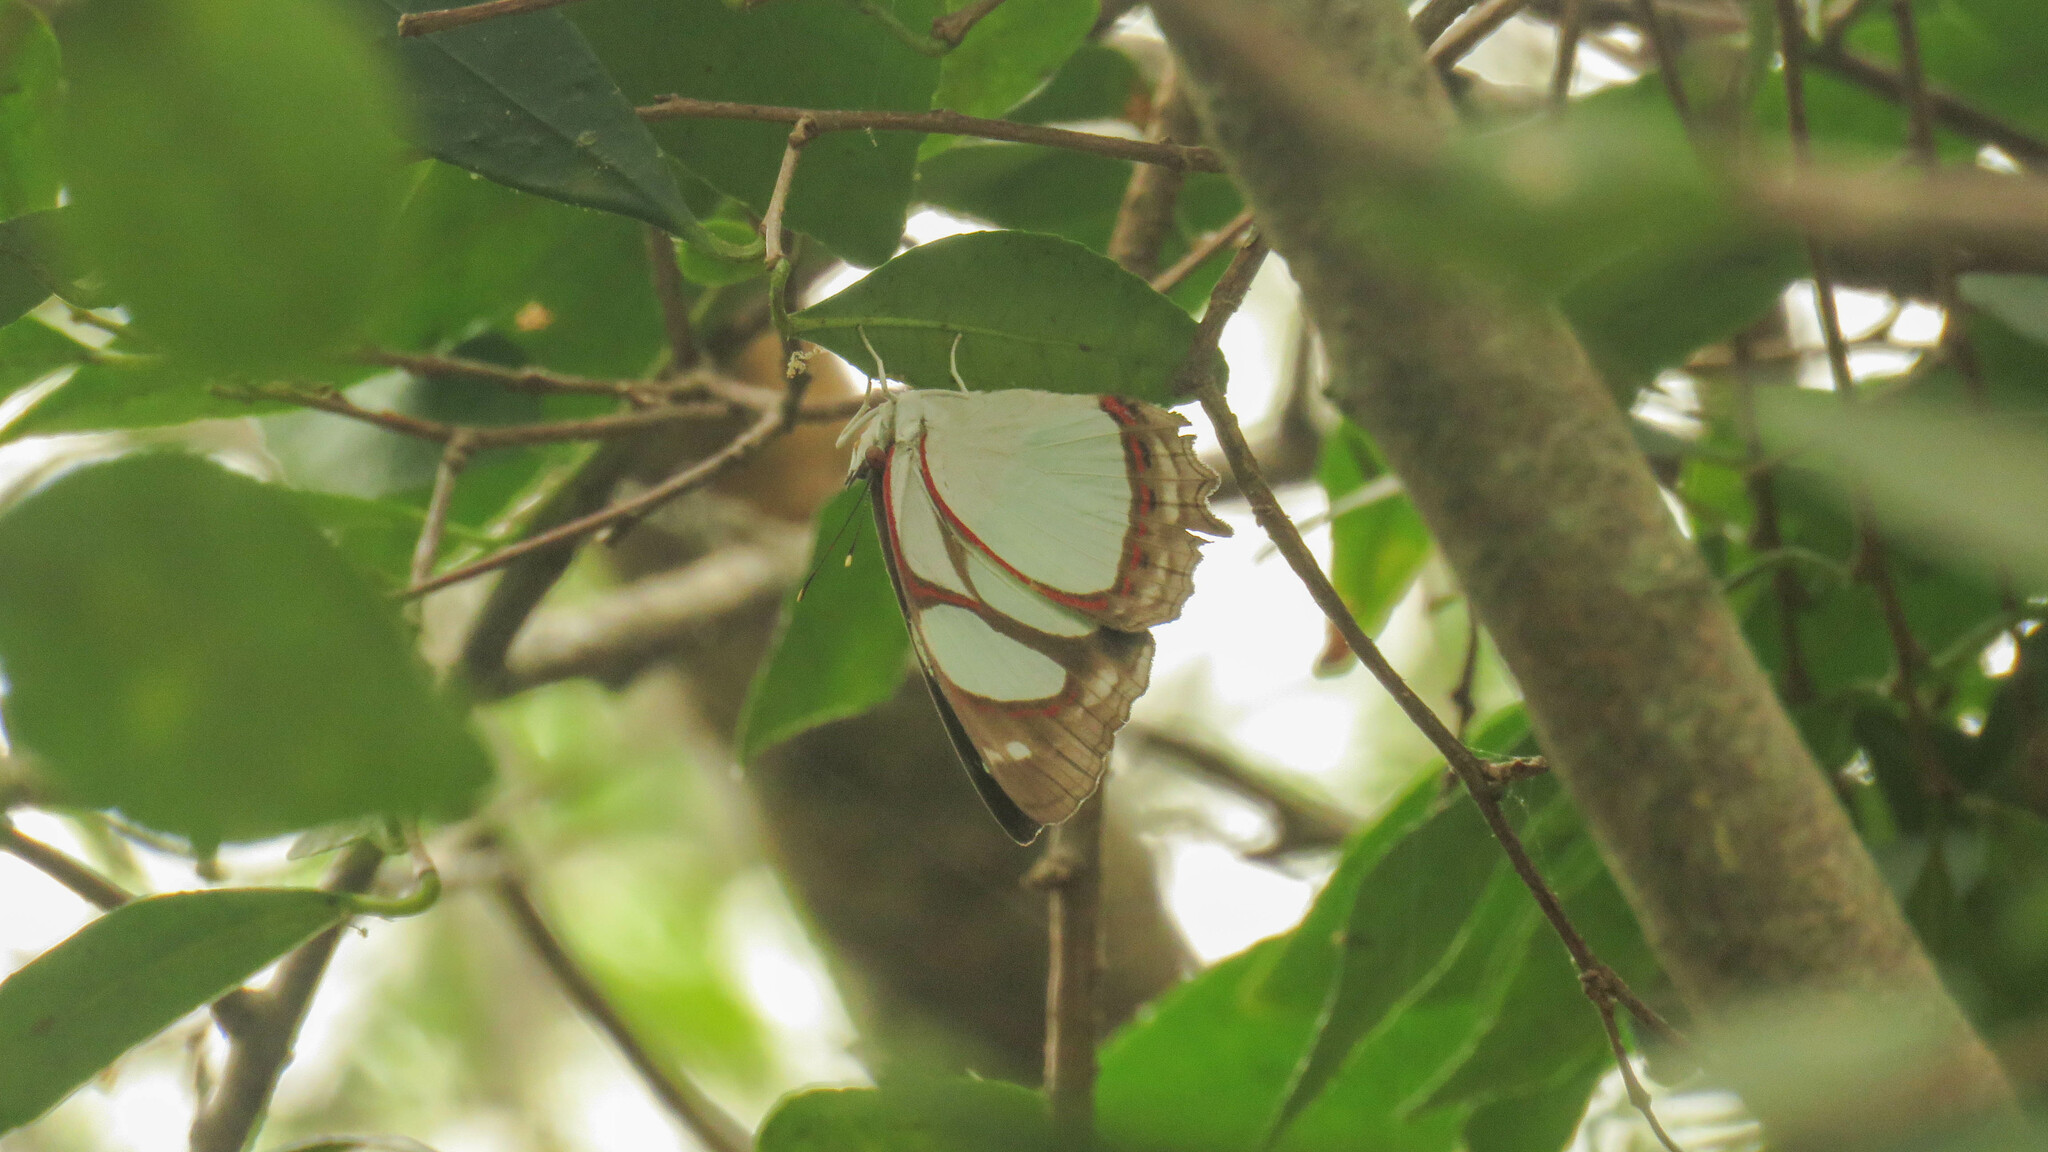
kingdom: Animalia
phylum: Arthropoda
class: Insecta
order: Lepidoptera
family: Nymphalidae
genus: Pyrrhogyra
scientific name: Pyrrhogyra neaerea
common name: Leading red-ring
